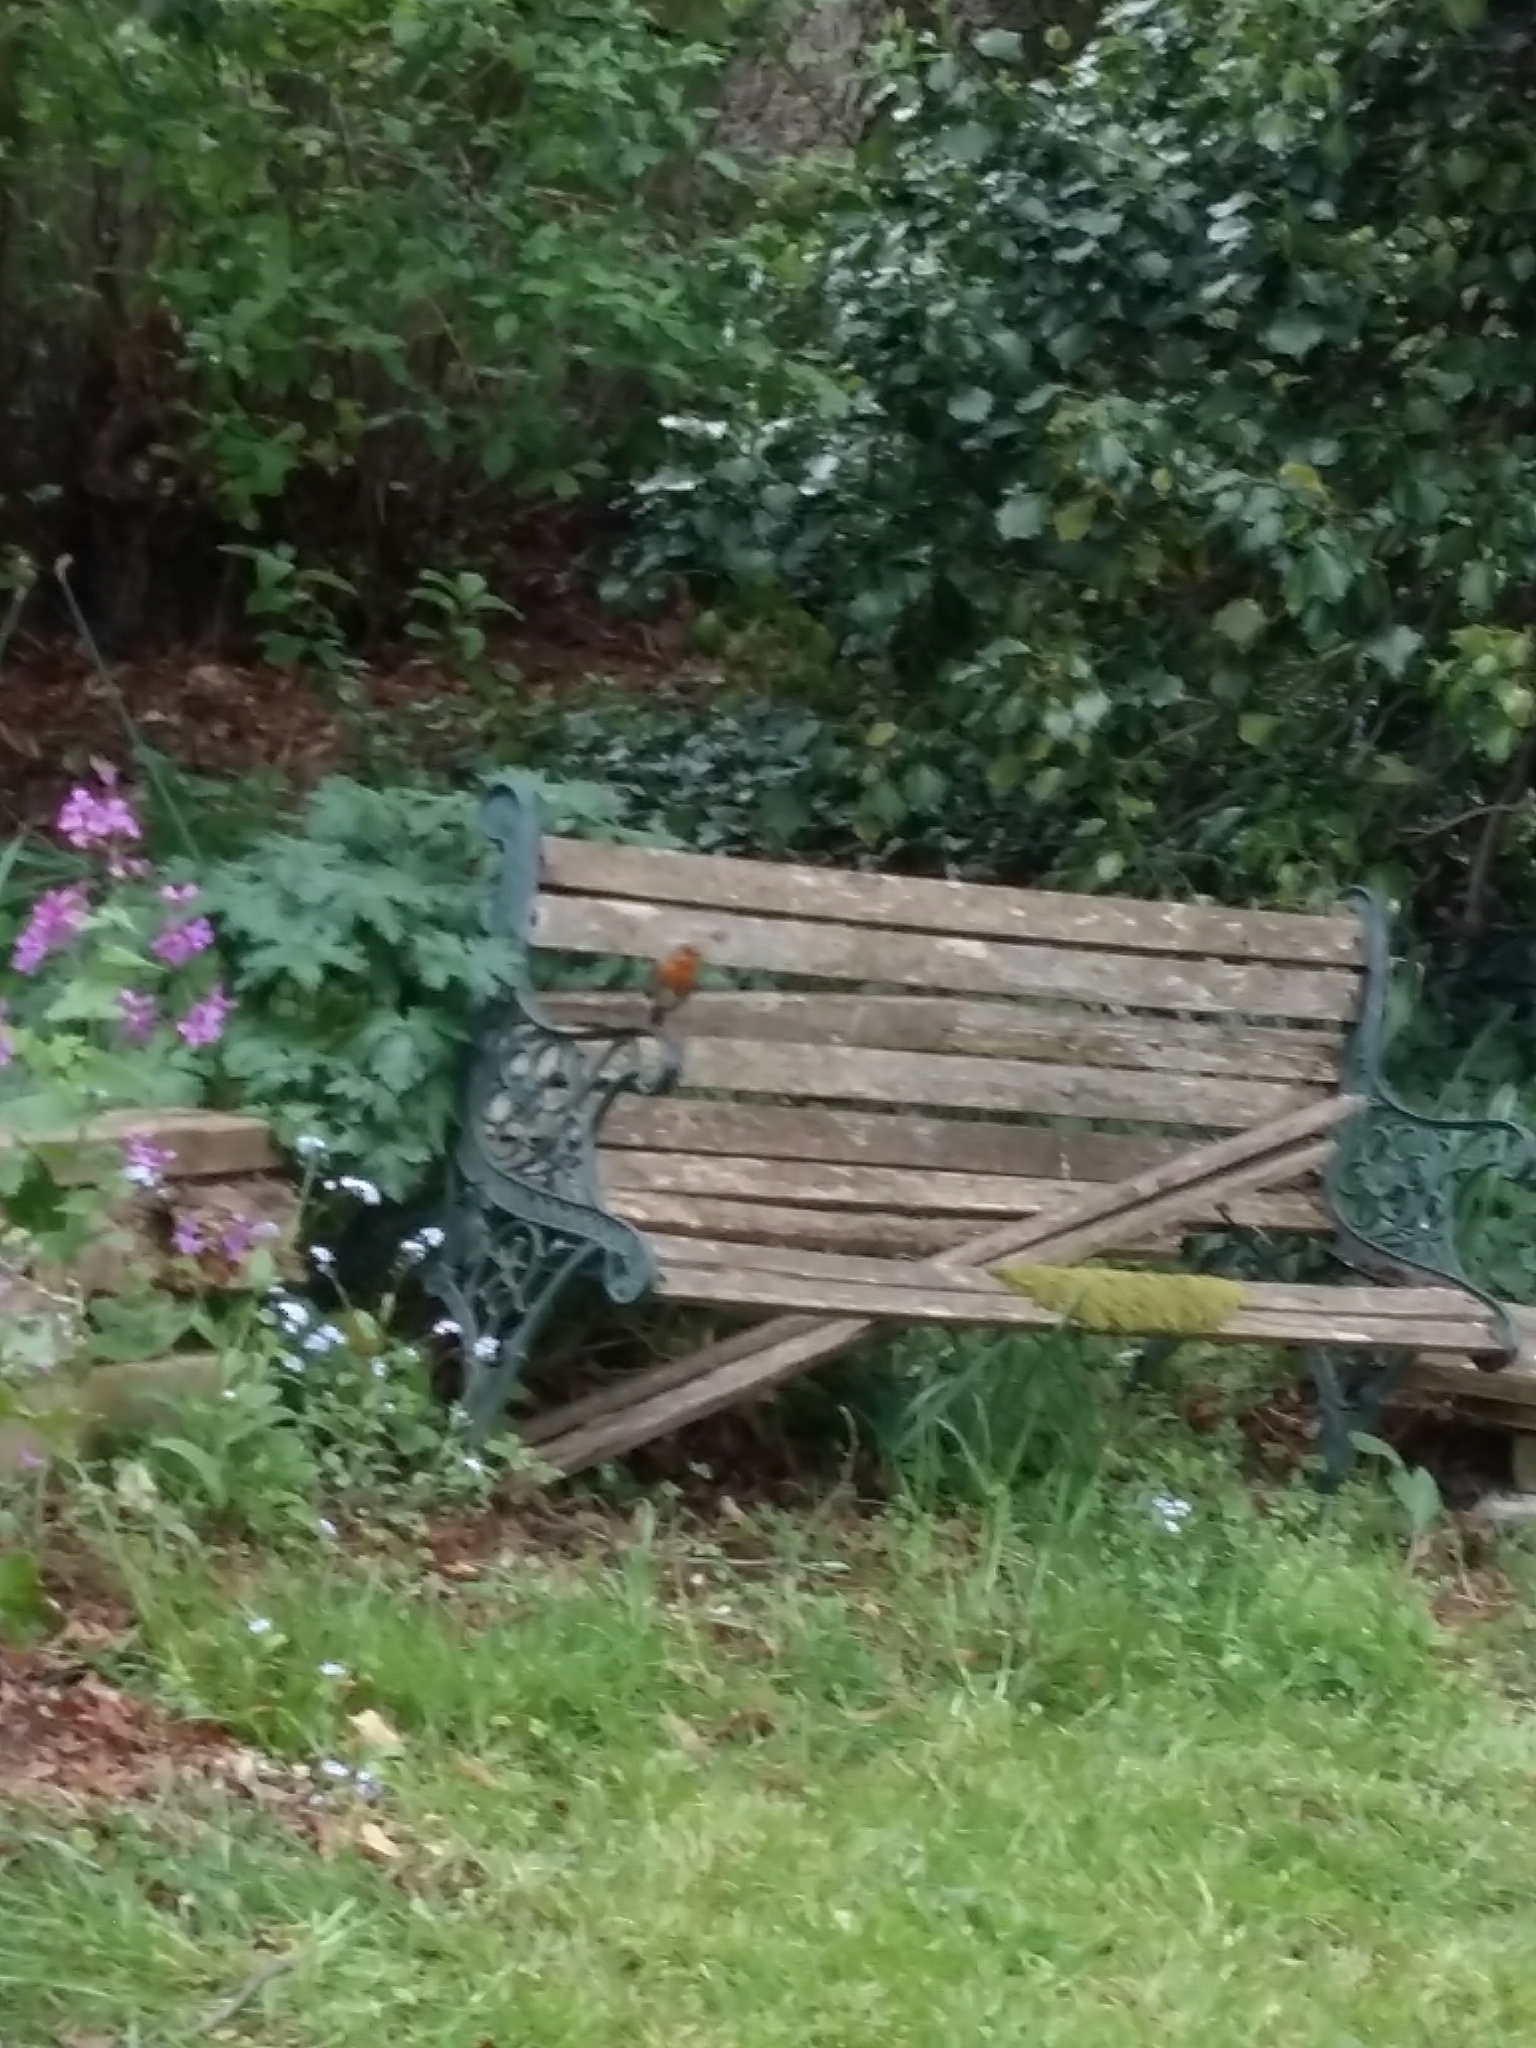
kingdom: Animalia
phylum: Chordata
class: Aves
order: Passeriformes
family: Muscicapidae
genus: Erithacus
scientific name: Erithacus rubecula
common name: European robin
